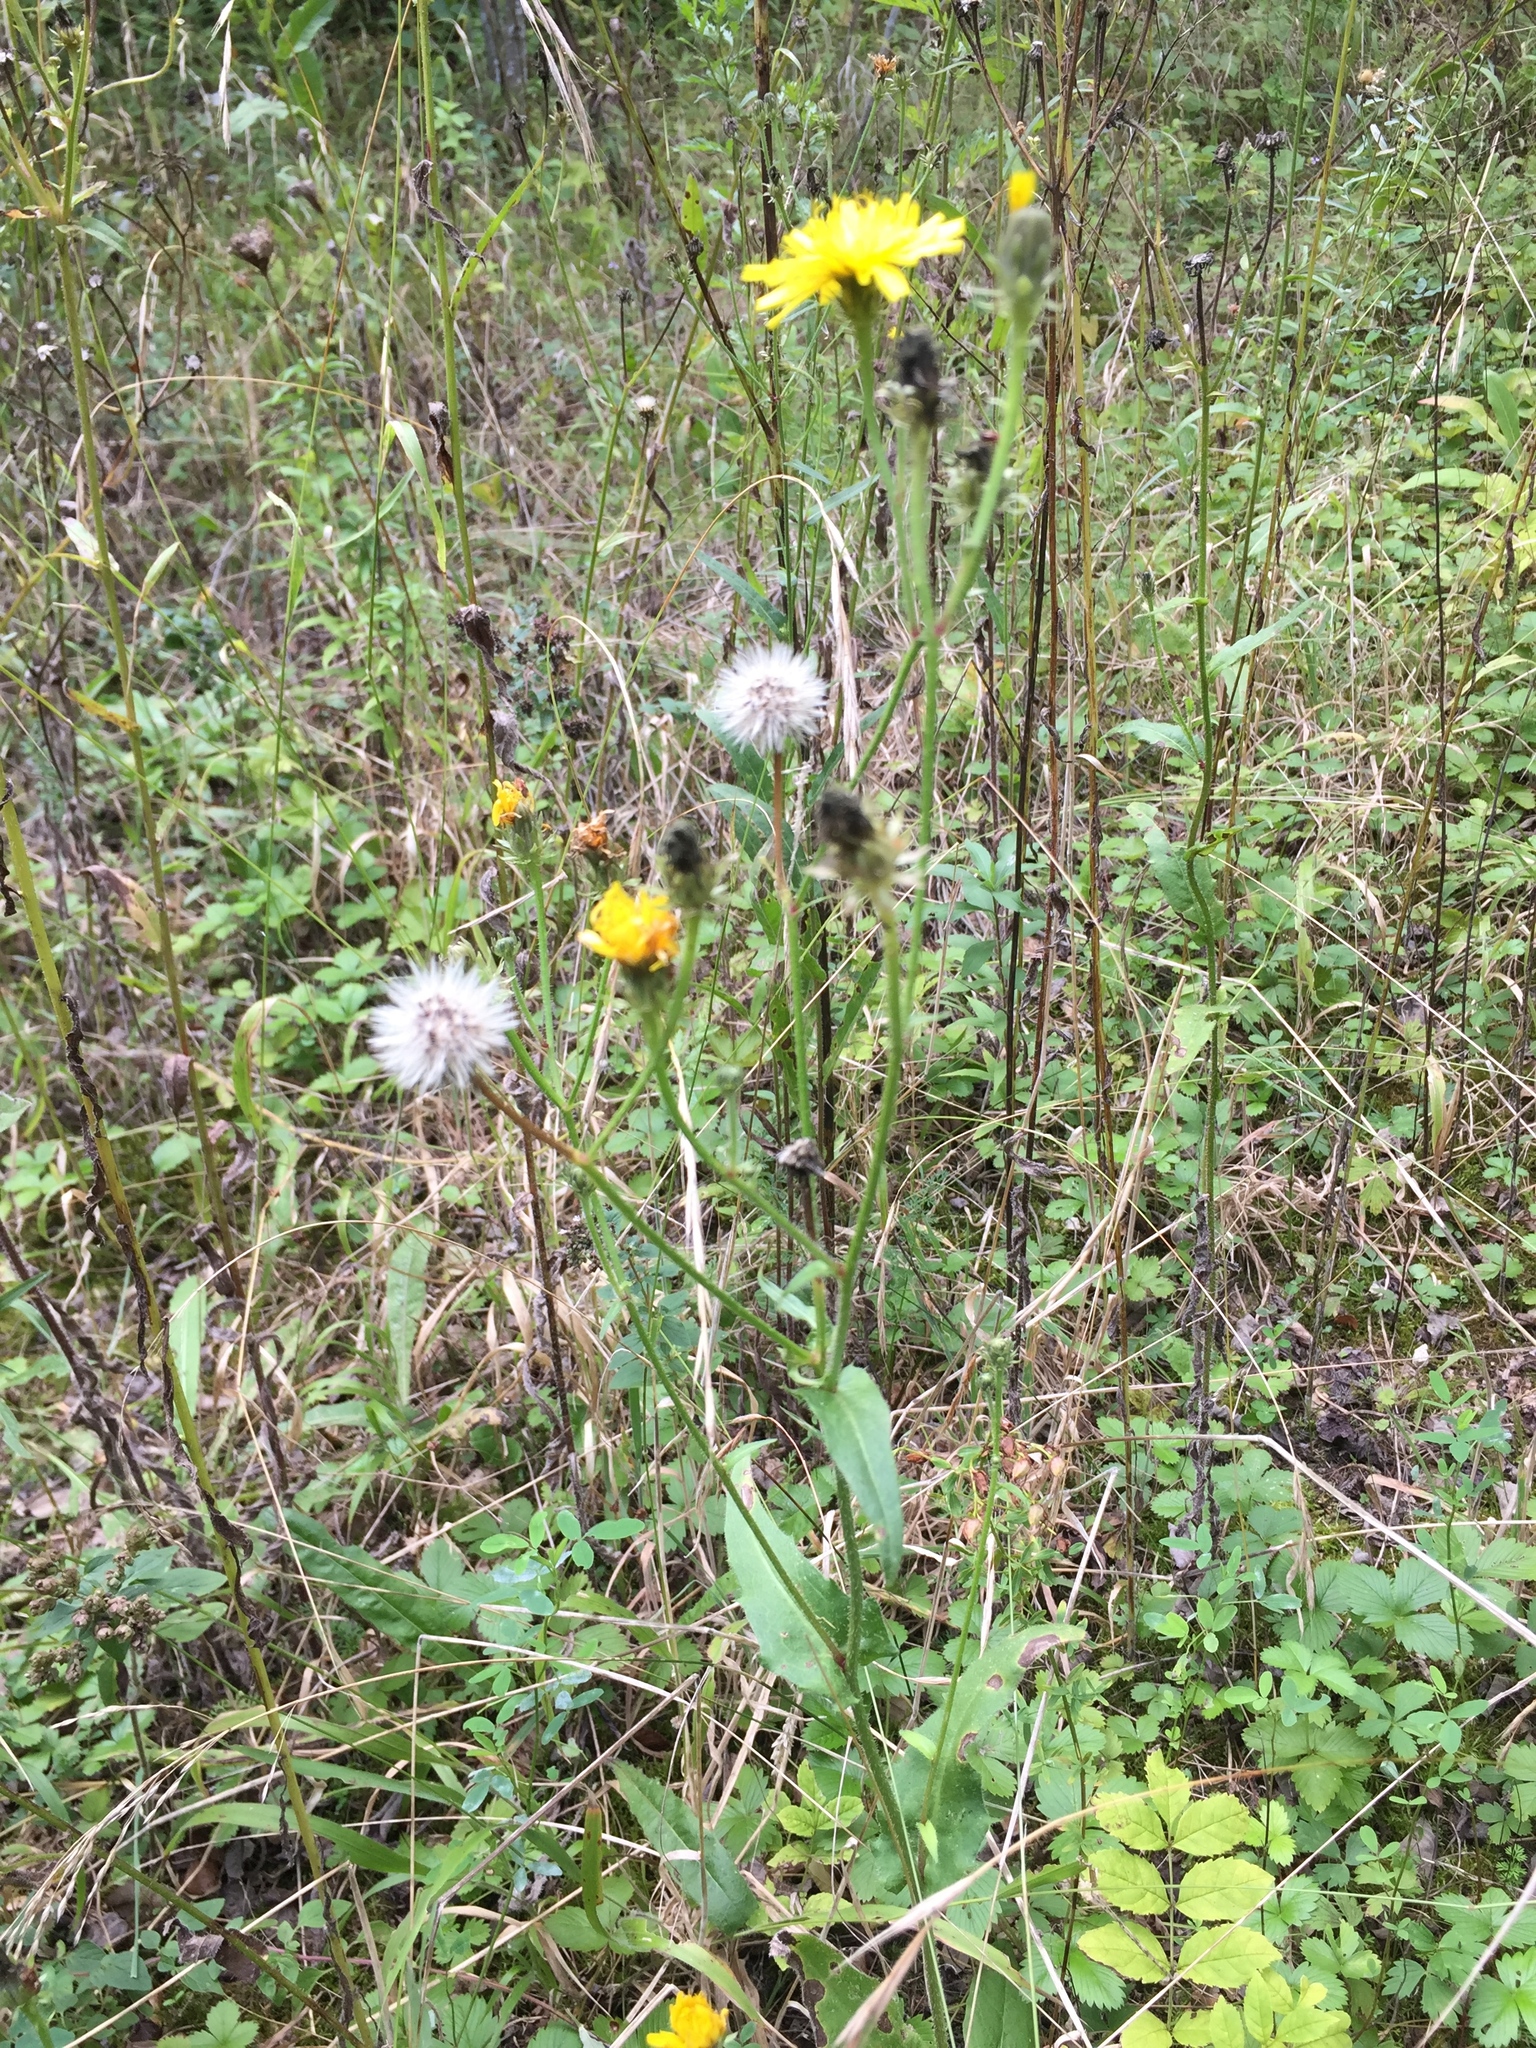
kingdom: Plantae
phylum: Tracheophyta
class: Magnoliopsida
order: Asterales
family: Asteraceae
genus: Picris
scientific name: Picris hieracioides
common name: Hawkweed oxtongue
